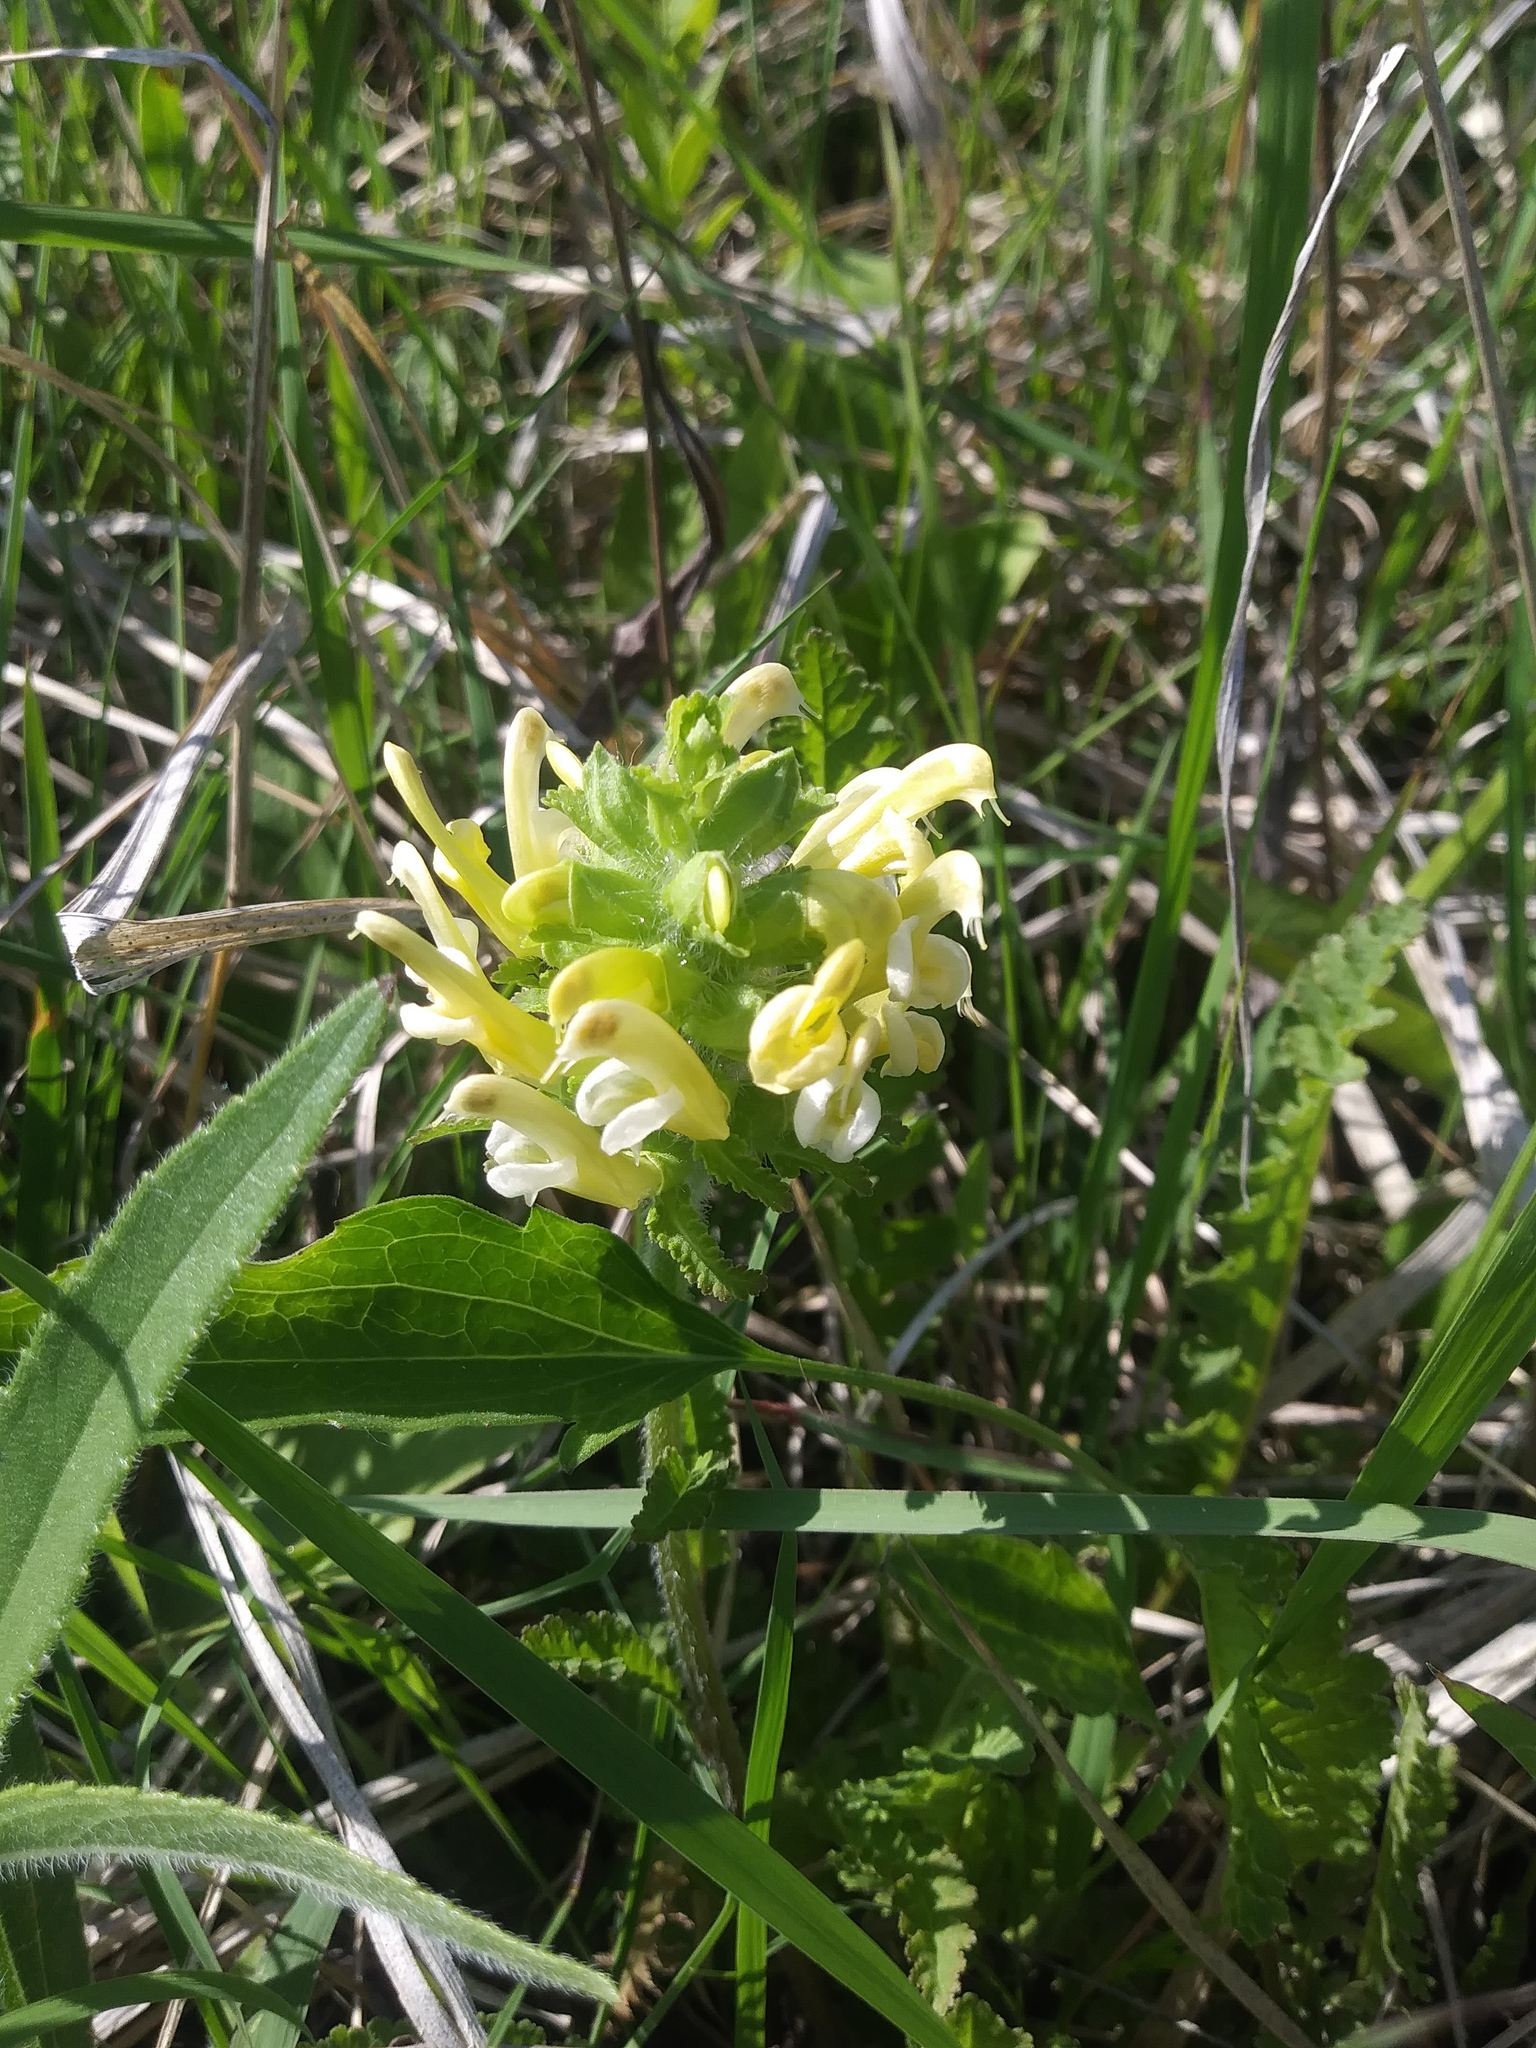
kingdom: Plantae
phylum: Tracheophyta
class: Magnoliopsida
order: Lamiales
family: Orobanchaceae
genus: Pedicularis
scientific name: Pedicularis canadensis
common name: Early lousewort
